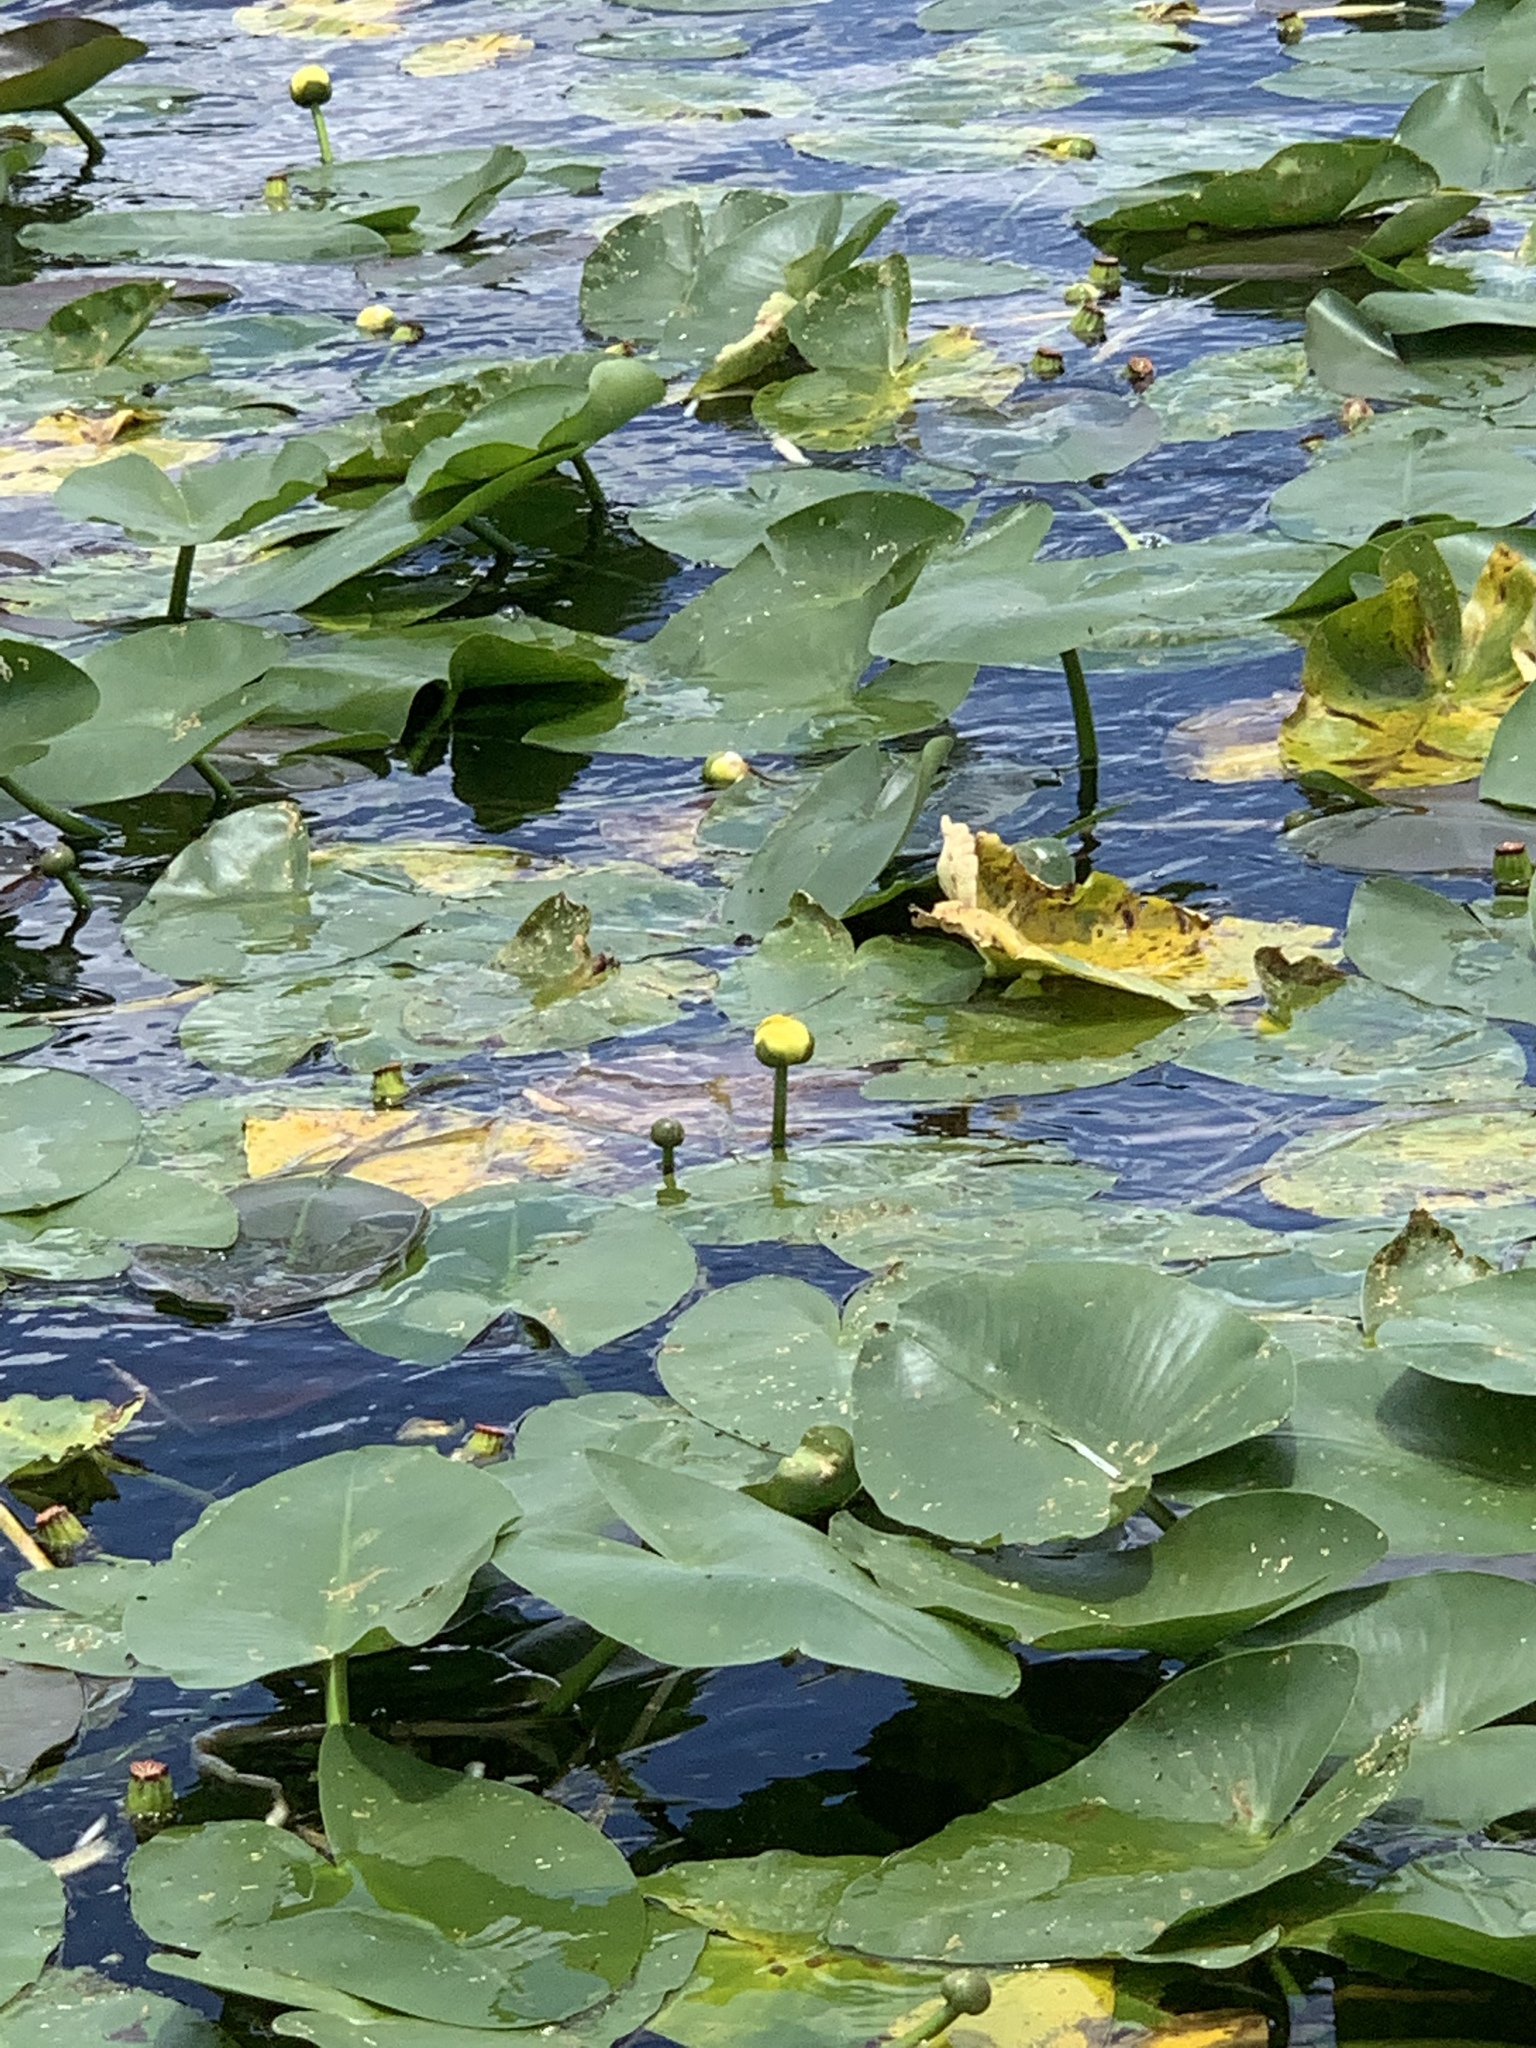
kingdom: Plantae
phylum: Tracheophyta
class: Magnoliopsida
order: Nymphaeales
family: Nymphaeaceae
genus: Nuphar
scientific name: Nuphar advena
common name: Spatter-dock
